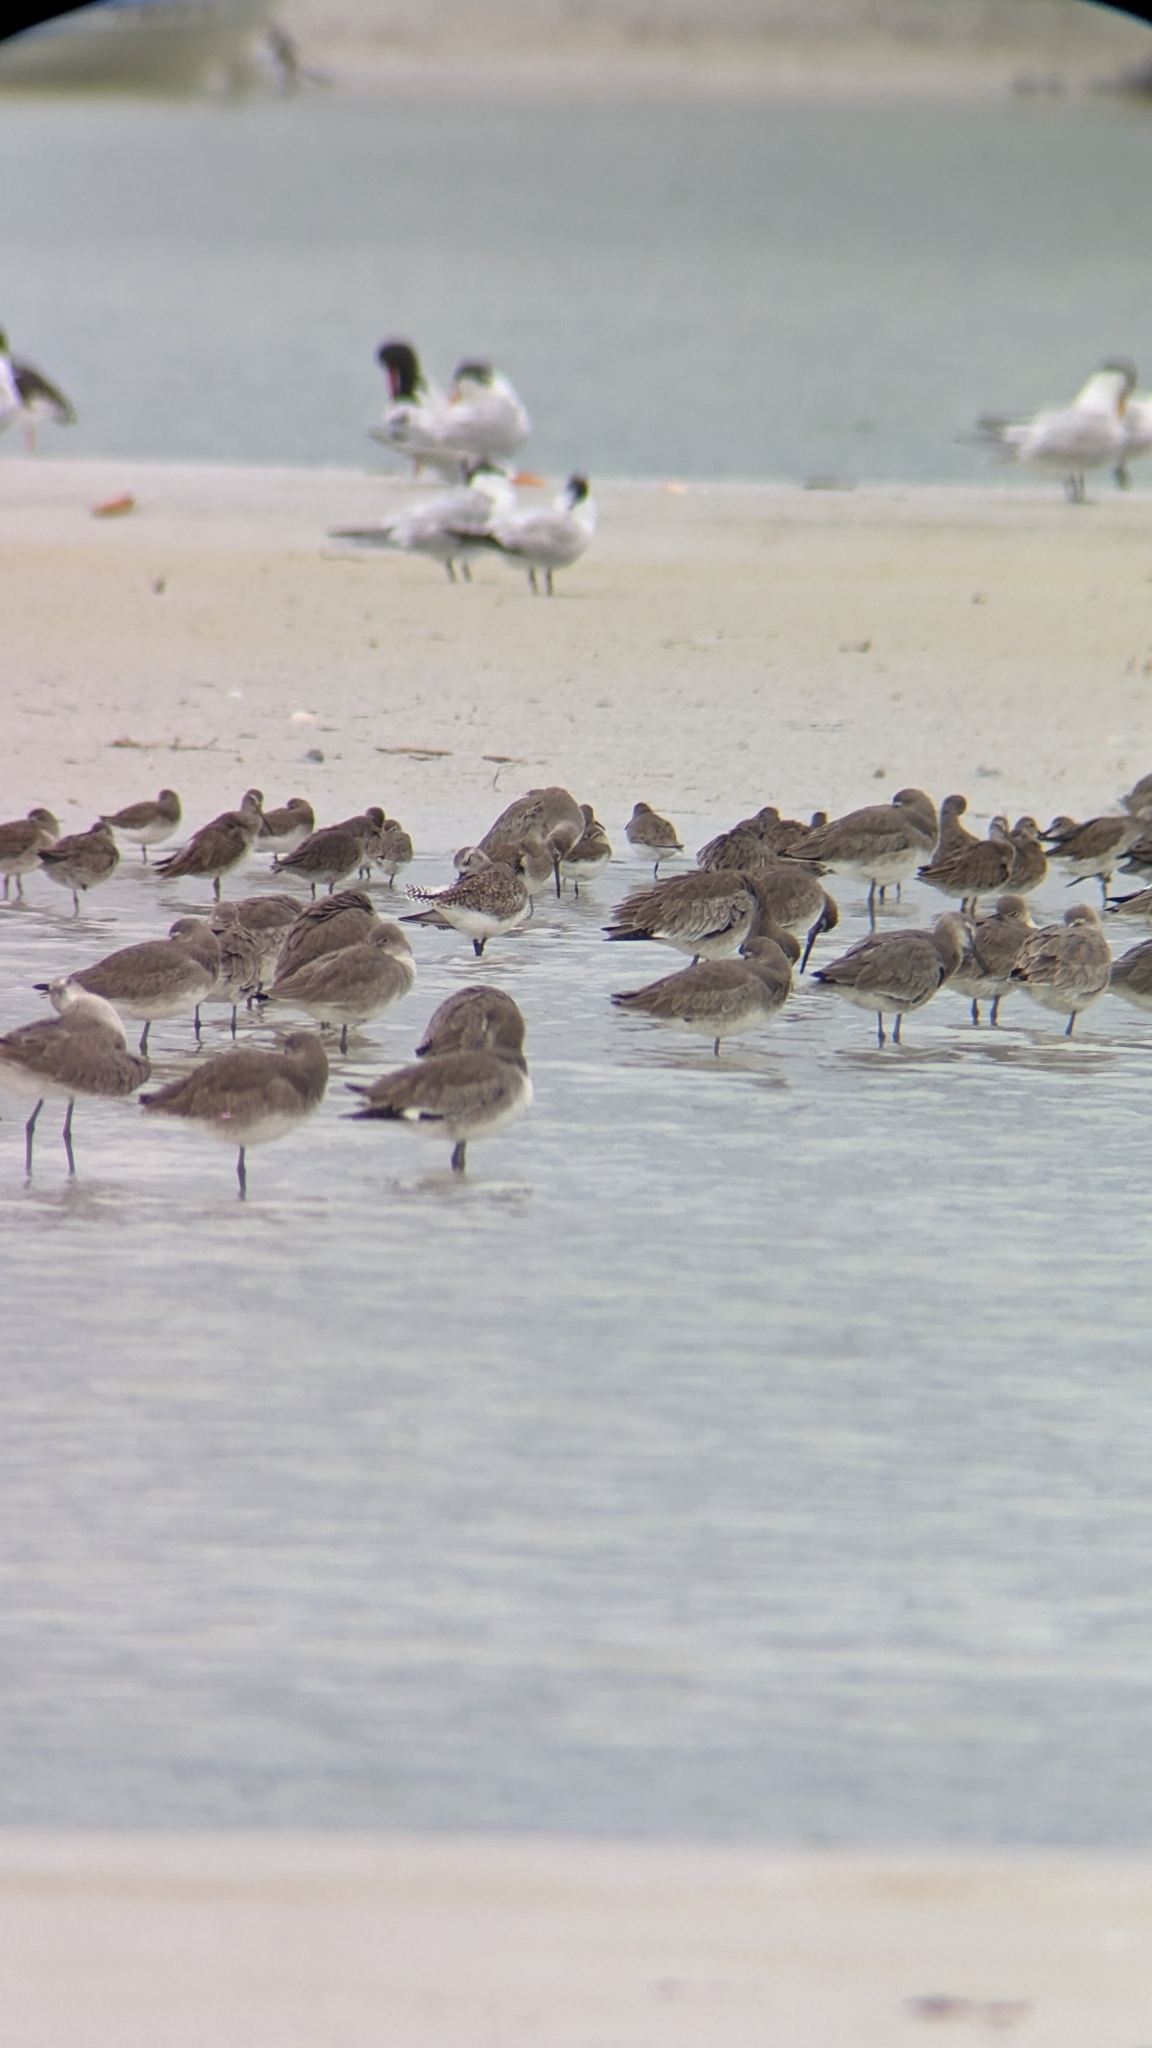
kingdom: Animalia
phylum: Chordata
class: Aves
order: Charadriiformes
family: Scolopacidae
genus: Tringa
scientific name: Tringa semipalmata
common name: Willet
